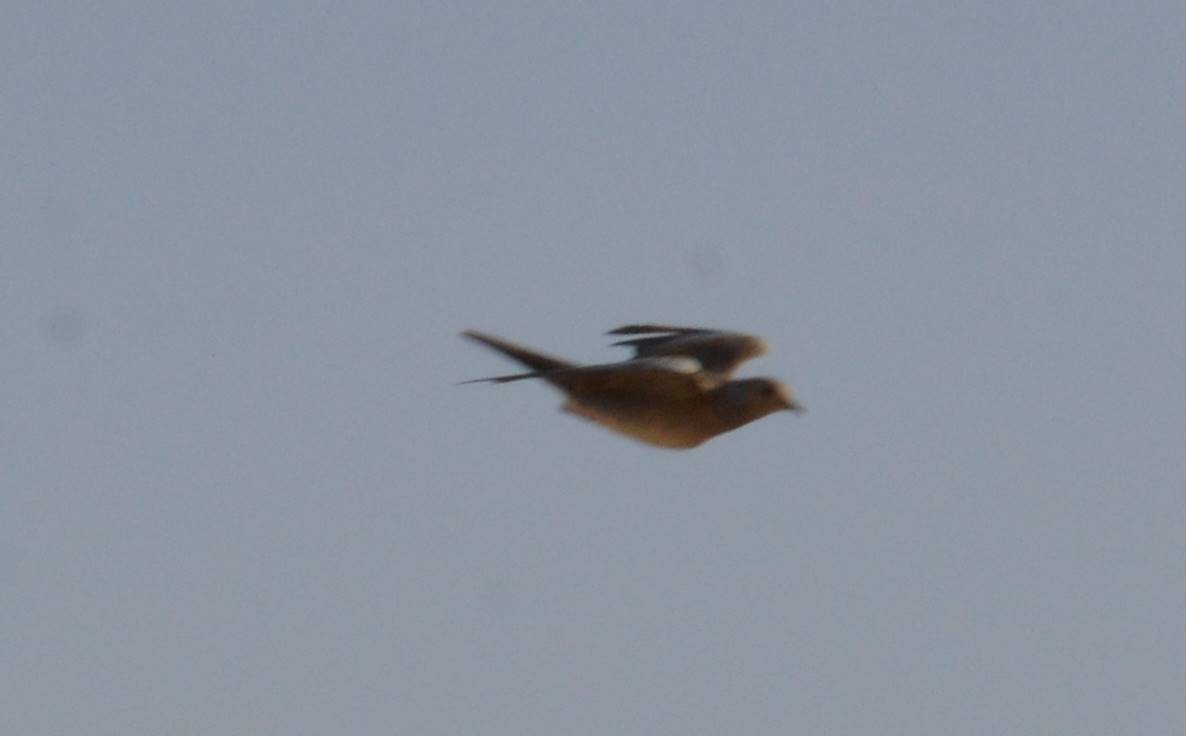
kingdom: Animalia
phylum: Chordata
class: Aves
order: Columbiformes
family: Columbidae
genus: Spilopelia
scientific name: Spilopelia senegalensis
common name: Laughing dove
